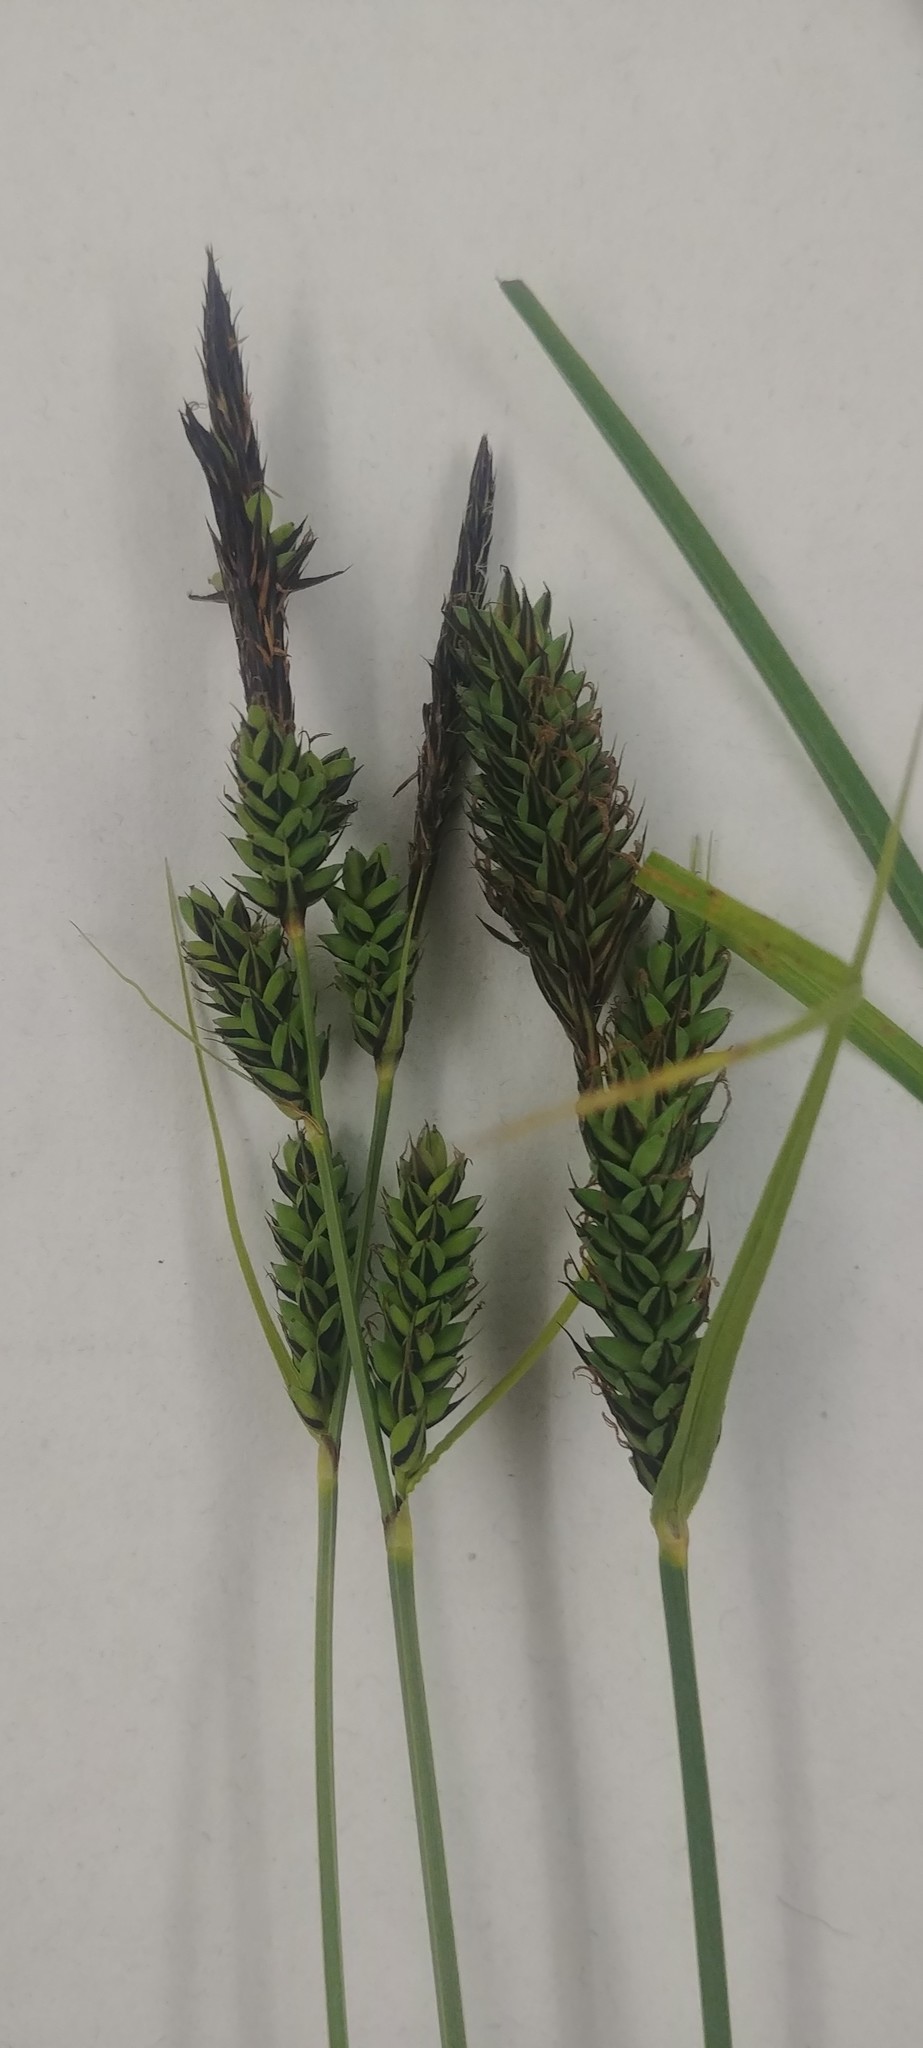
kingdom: Plantae
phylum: Tracheophyta
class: Liliopsida
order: Poales
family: Cyperaceae
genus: Carex
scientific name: Carex buxbaumii
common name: Club sedge
